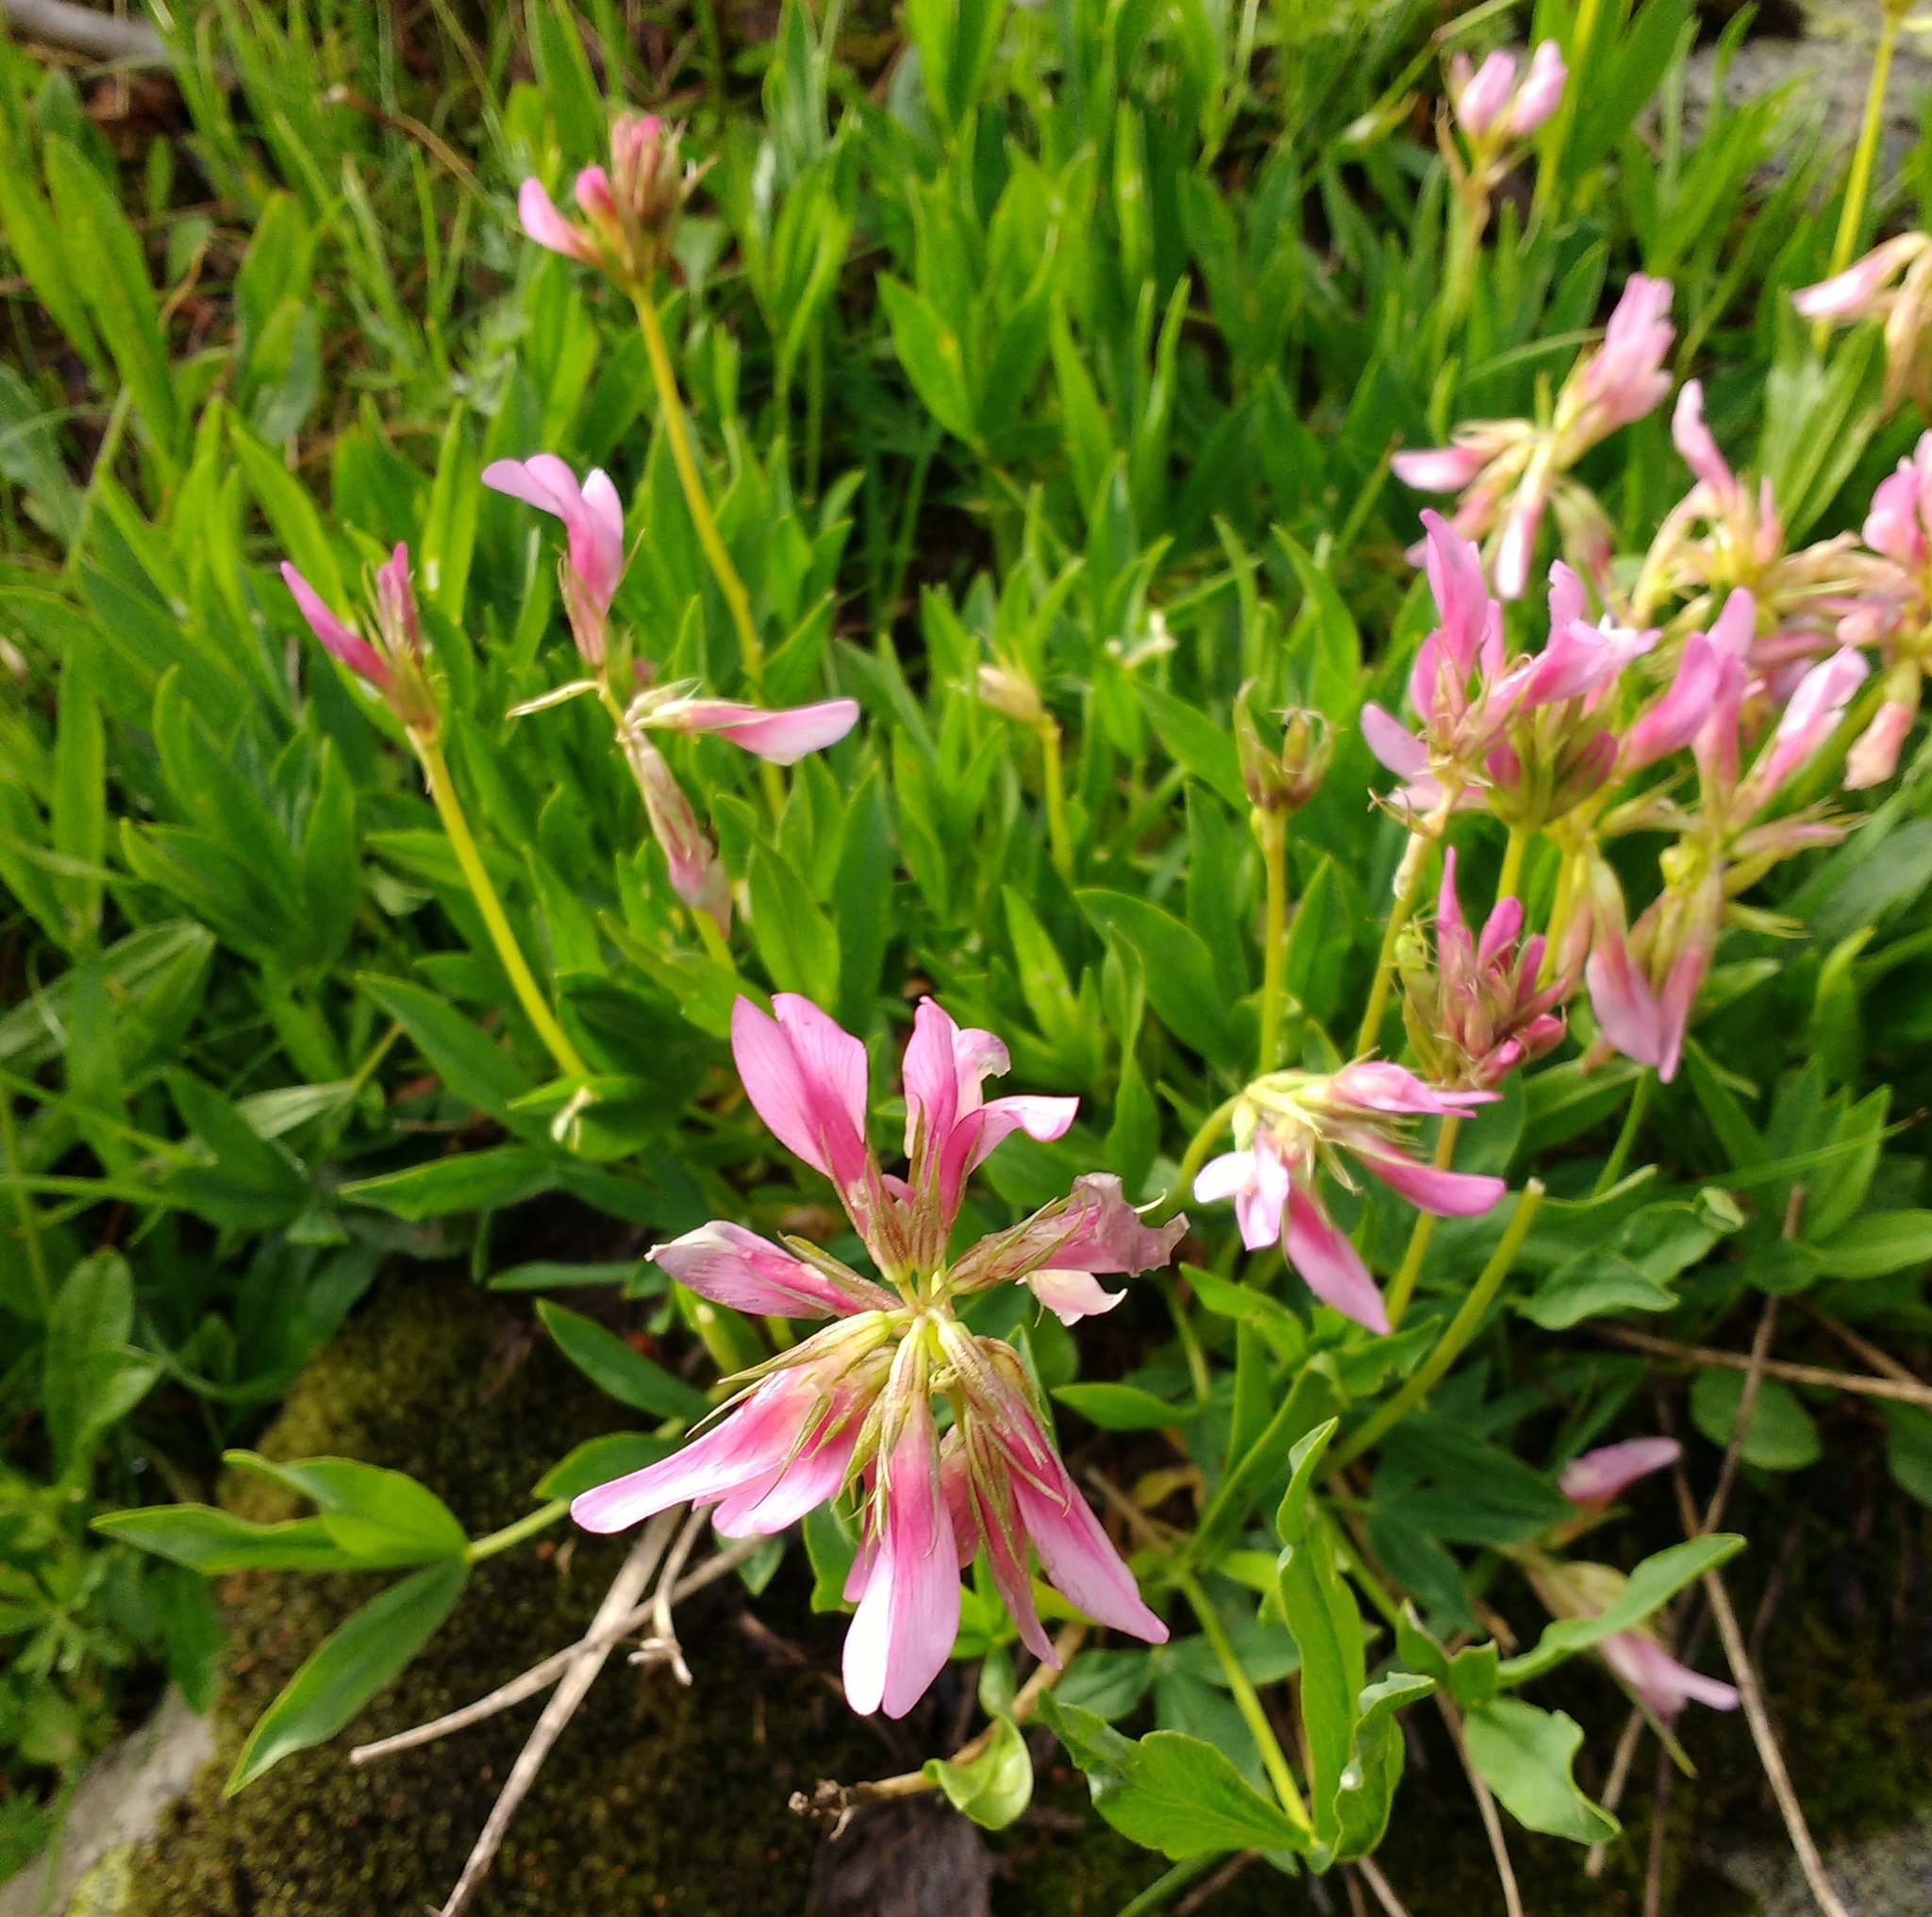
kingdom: Plantae
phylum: Tracheophyta
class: Magnoliopsida
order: Fabales
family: Fabaceae
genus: Trifolium
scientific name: Trifolium alpinum
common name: Alpine clover
